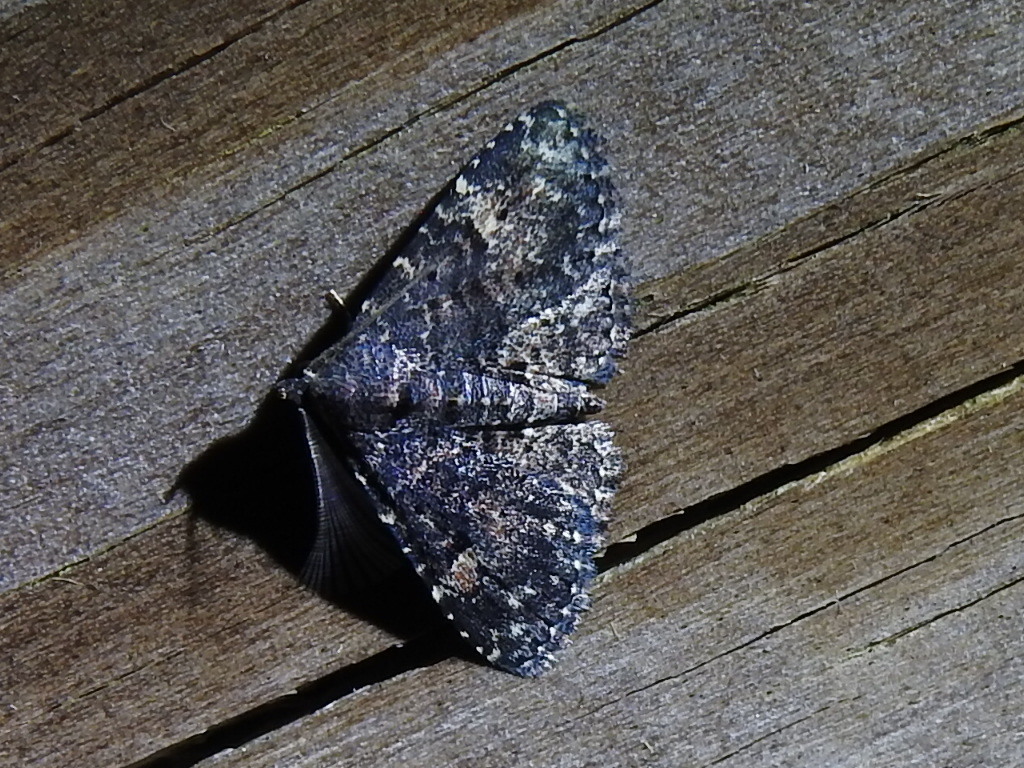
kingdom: Animalia
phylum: Arthropoda
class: Insecta
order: Lepidoptera
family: Erebidae
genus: Metalectra
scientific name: Metalectra discalis
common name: Common fungus moth
